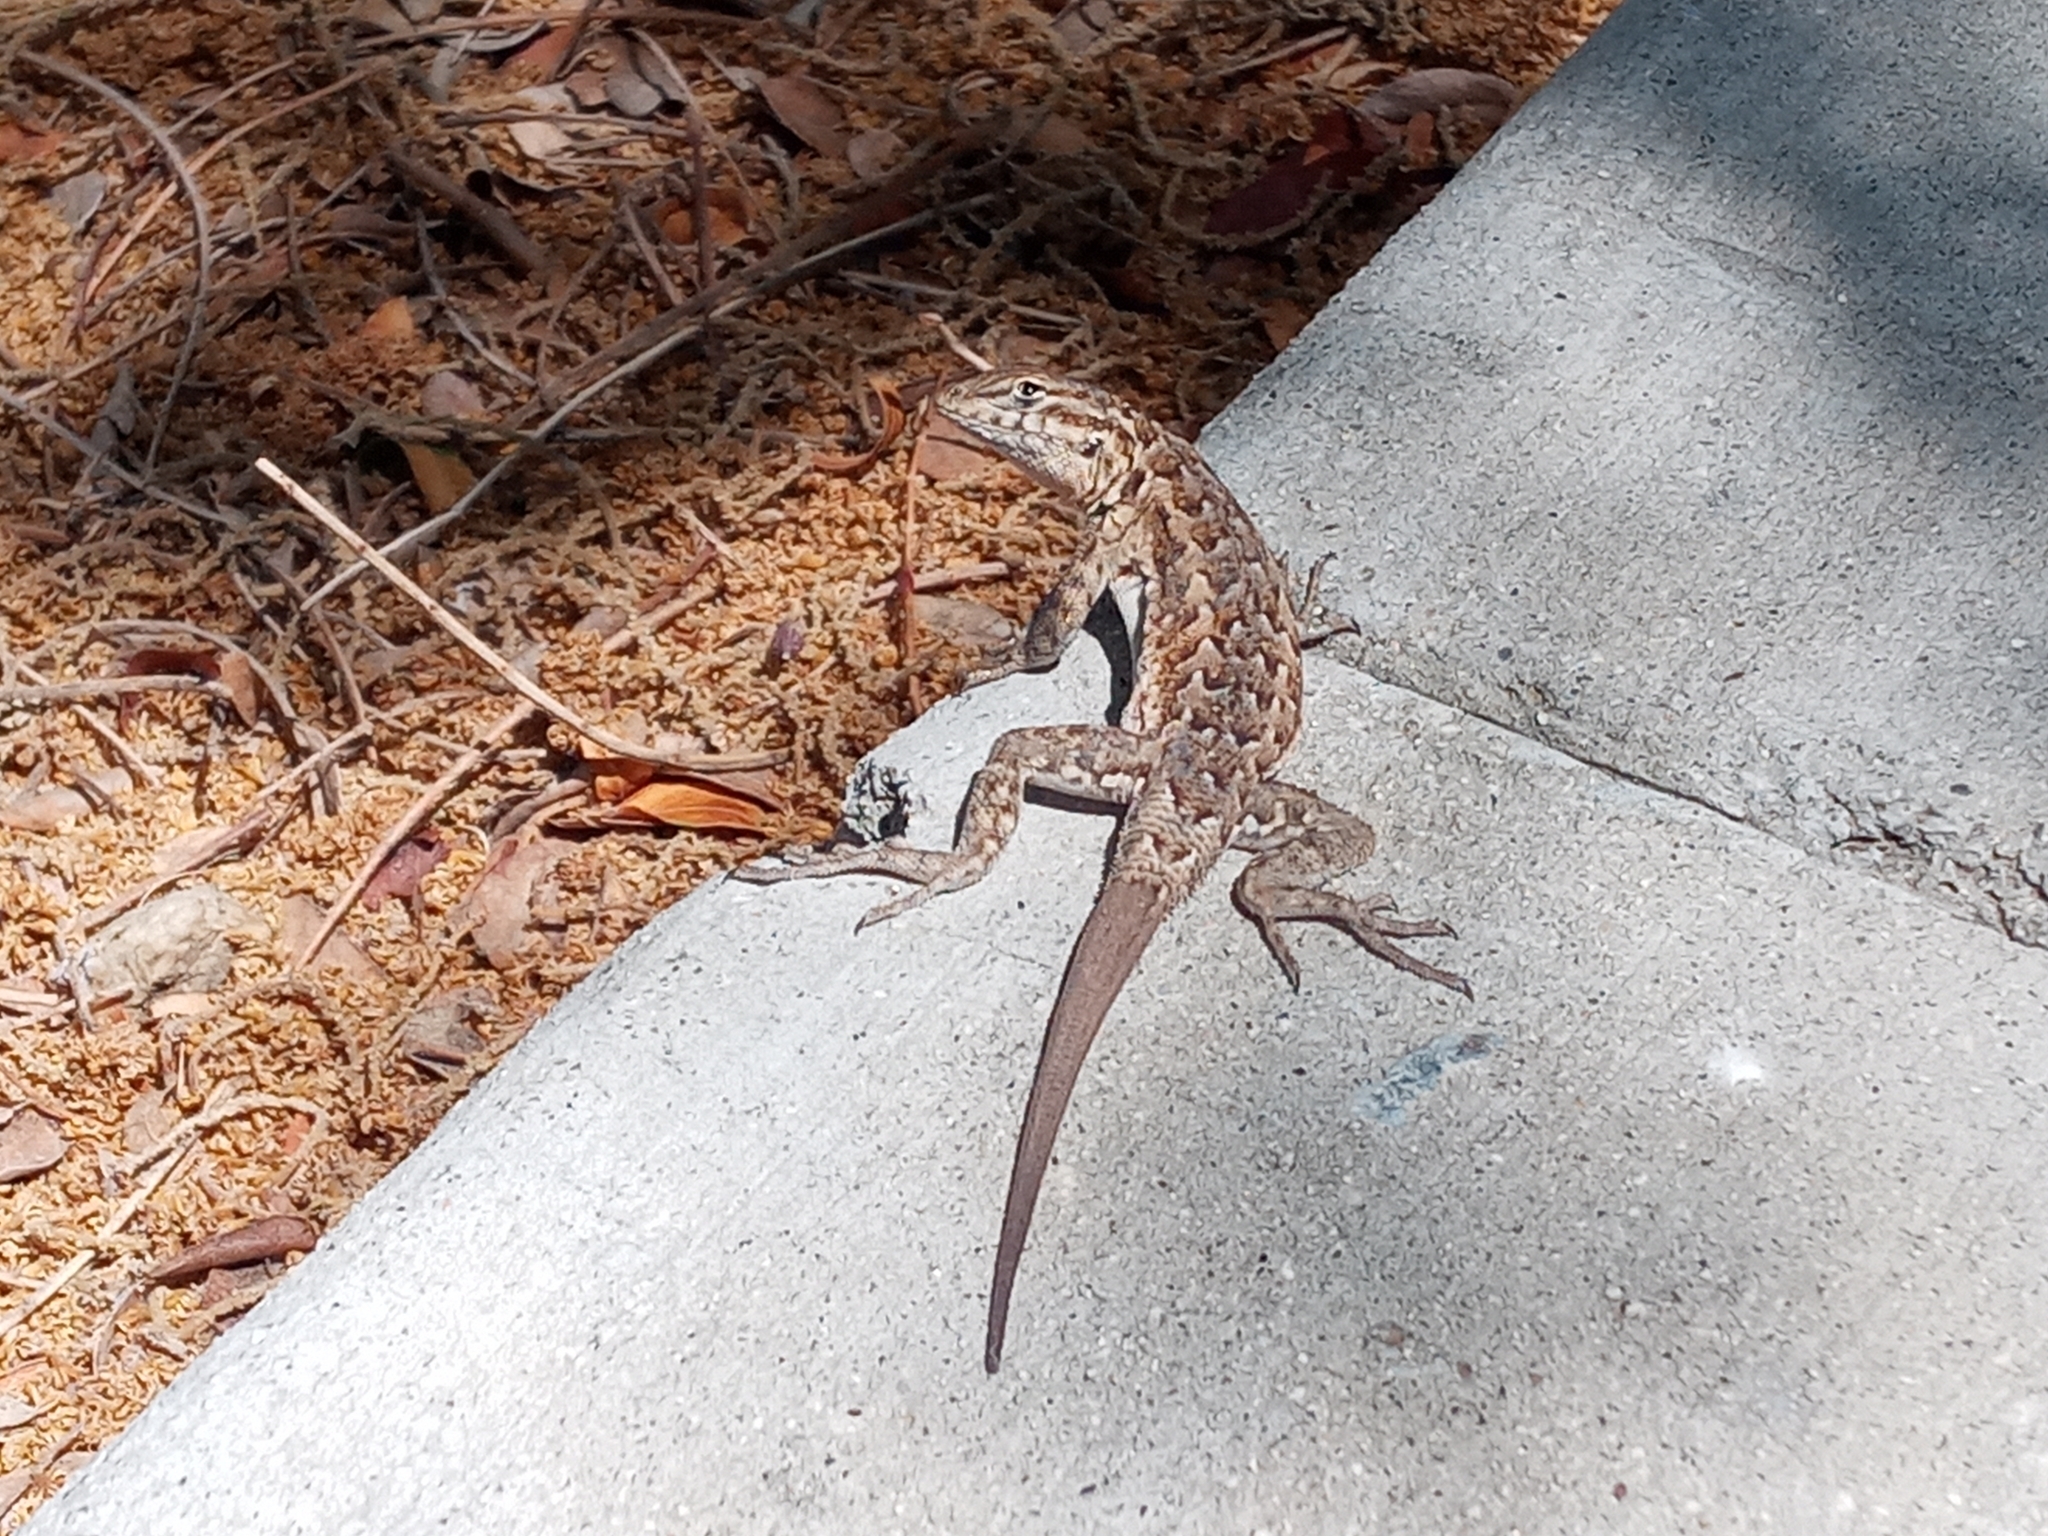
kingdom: Animalia
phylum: Chordata
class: Squamata
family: Phrynosomatidae
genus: Uta
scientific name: Uta stansburiana
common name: Side-blotched lizard
